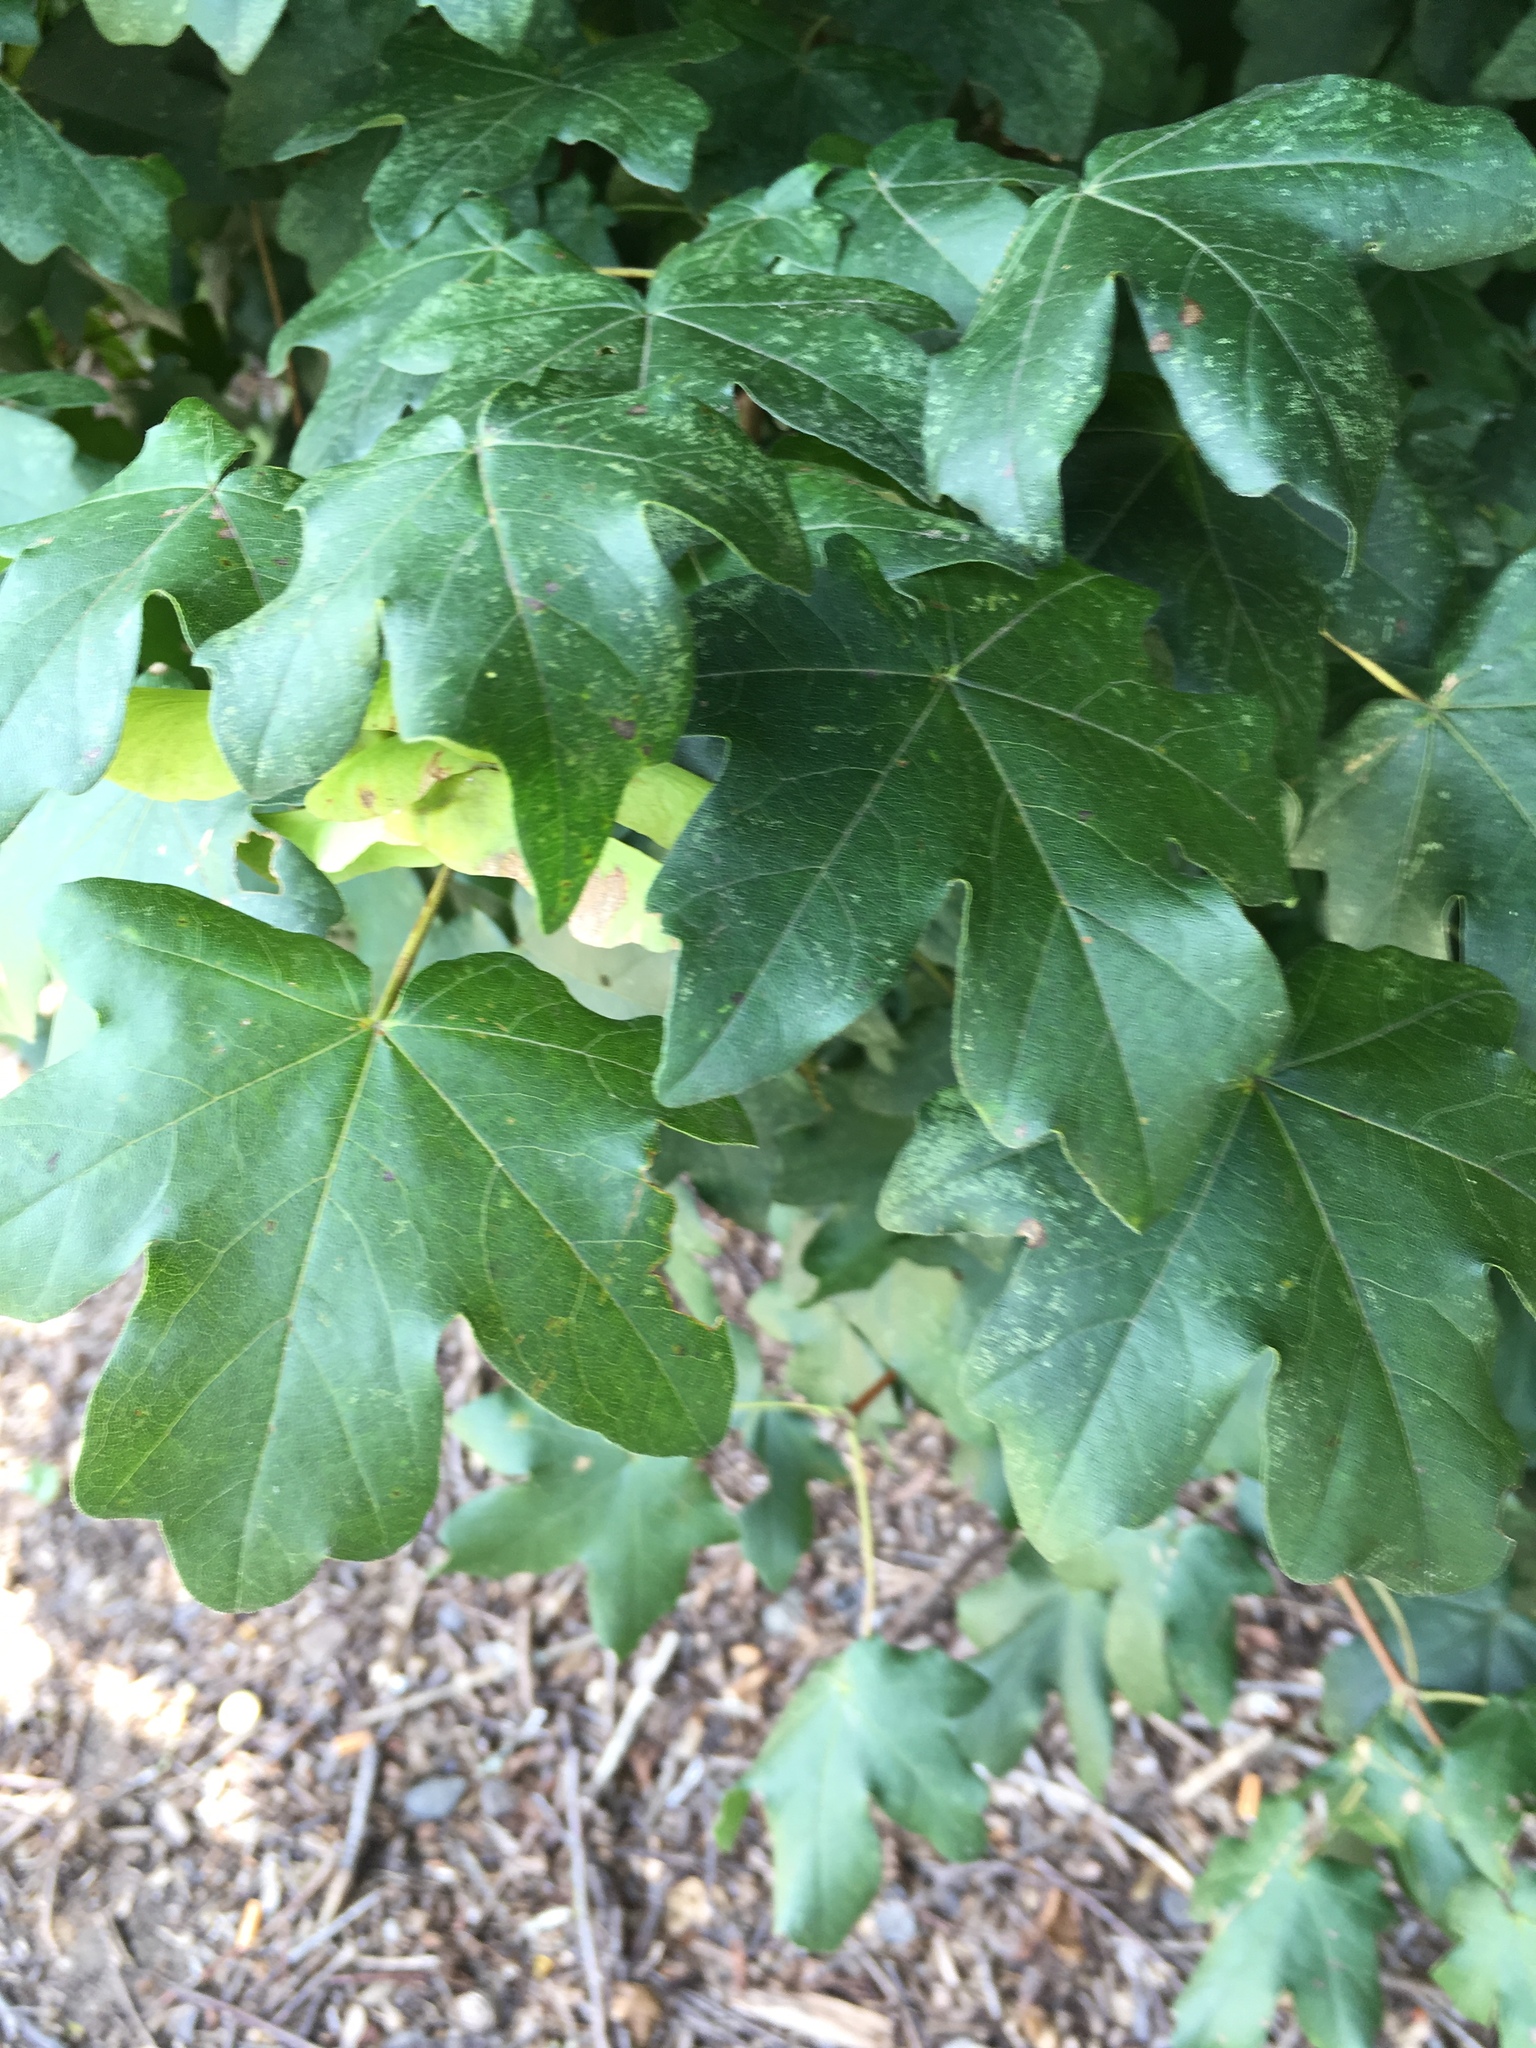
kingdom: Plantae
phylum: Tracheophyta
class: Magnoliopsida
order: Sapindales
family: Sapindaceae
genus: Acer
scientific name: Acer campestre
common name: Field maple
